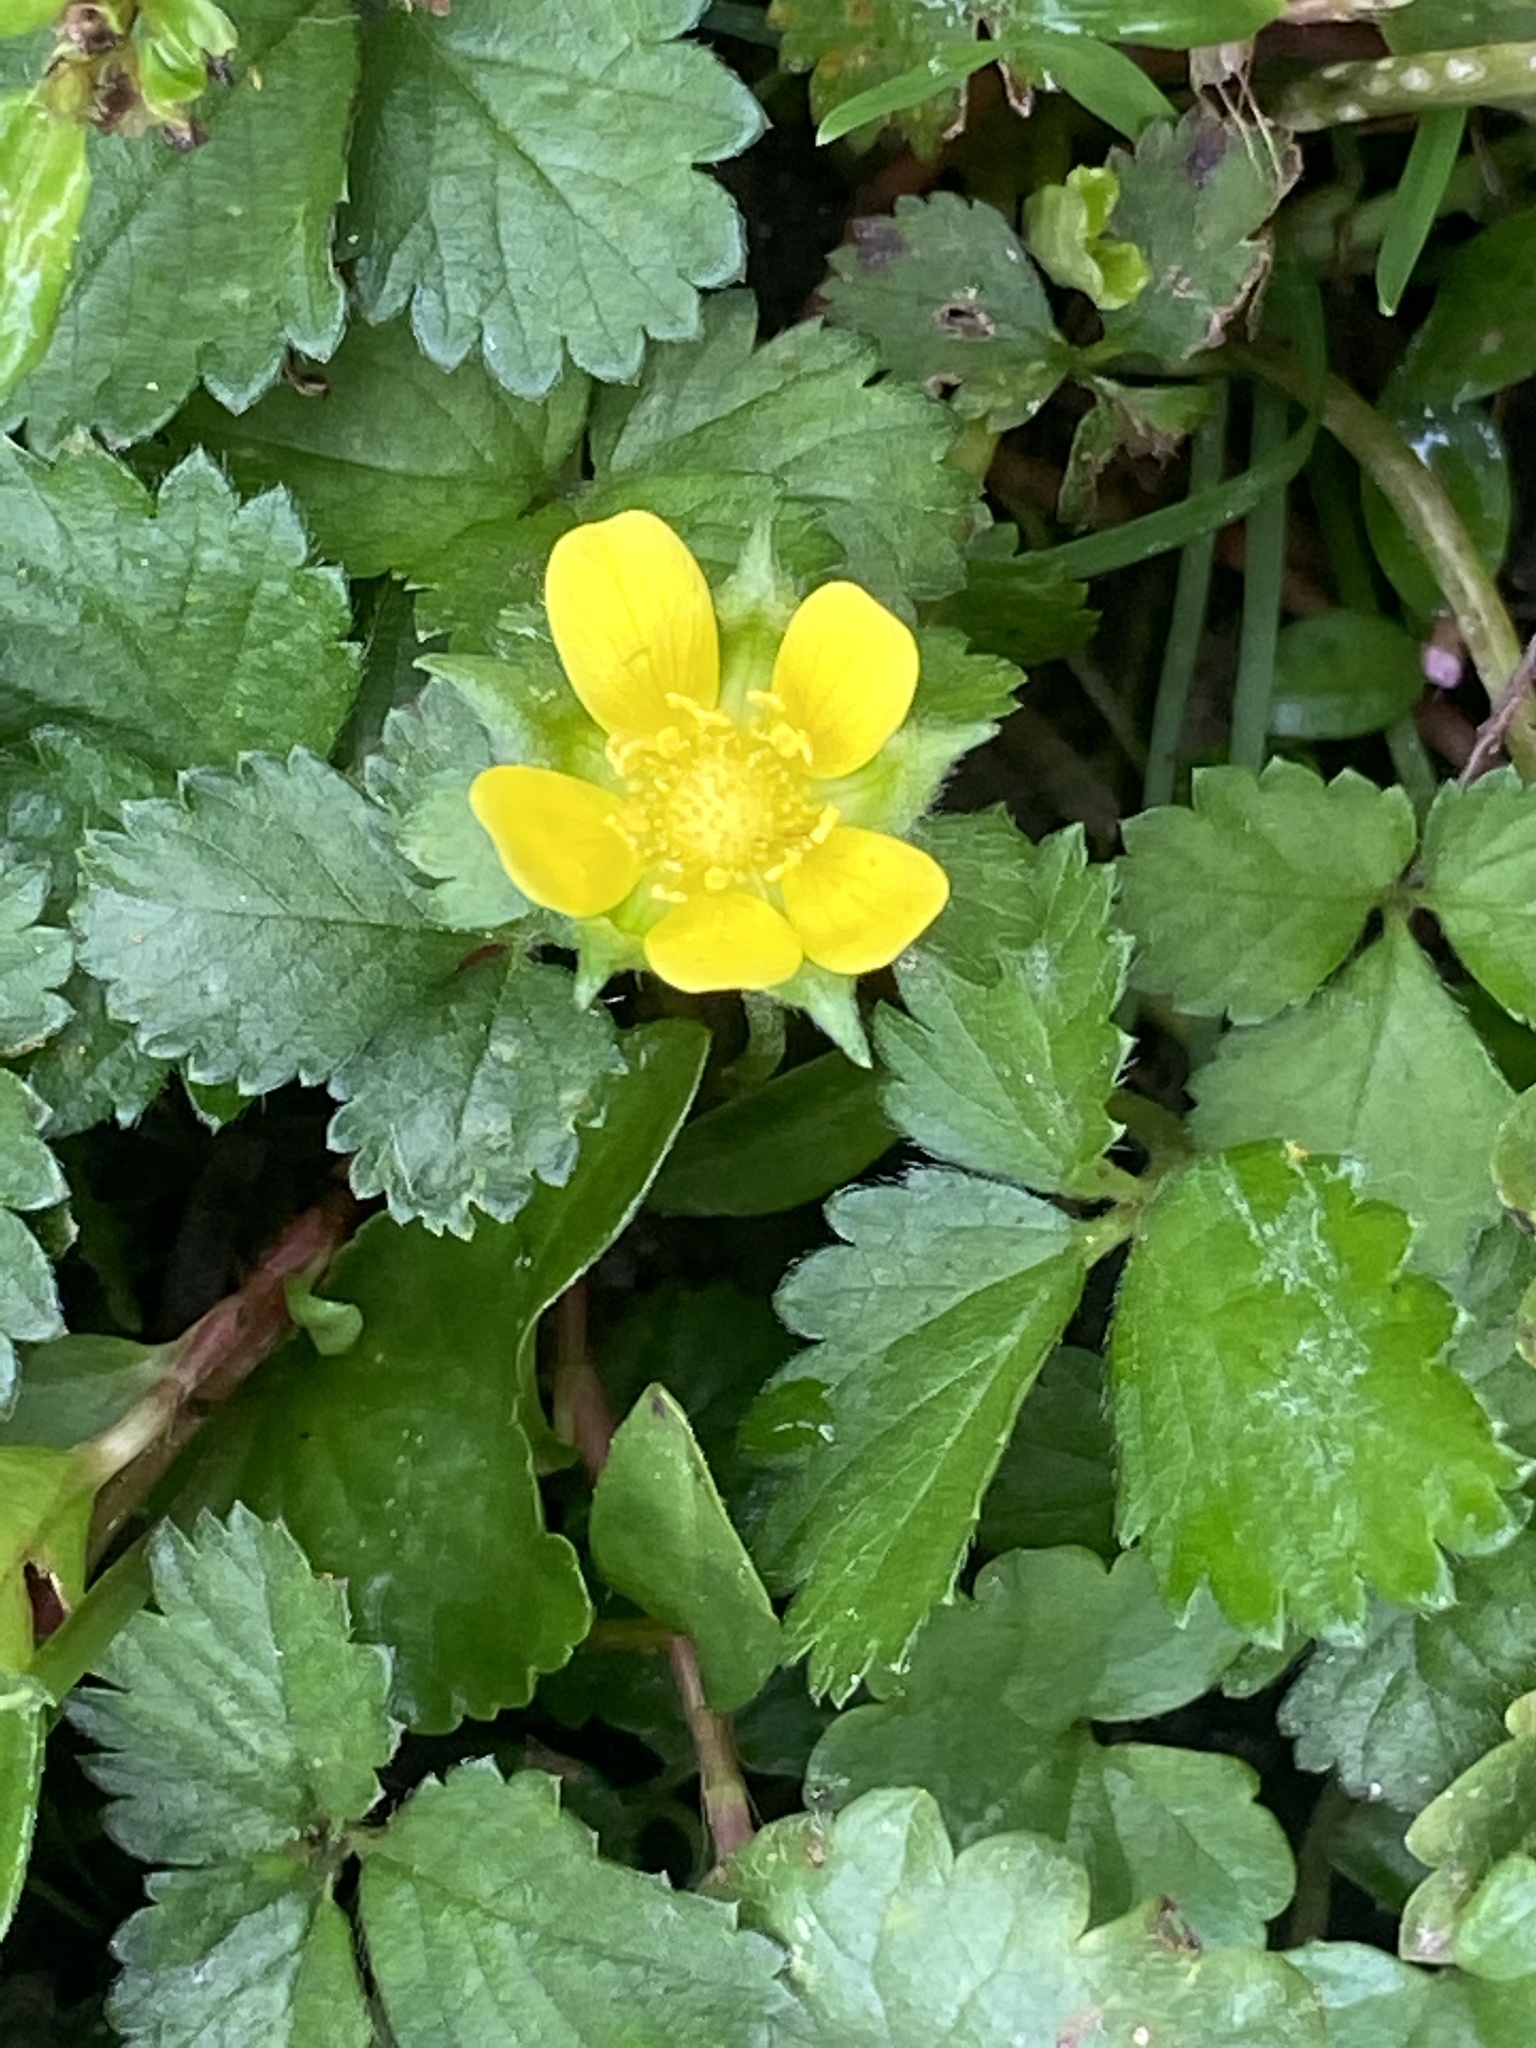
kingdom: Plantae
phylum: Tracheophyta
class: Magnoliopsida
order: Rosales
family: Rosaceae
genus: Potentilla
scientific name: Potentilla indica
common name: Yellow-flowered strawberry
